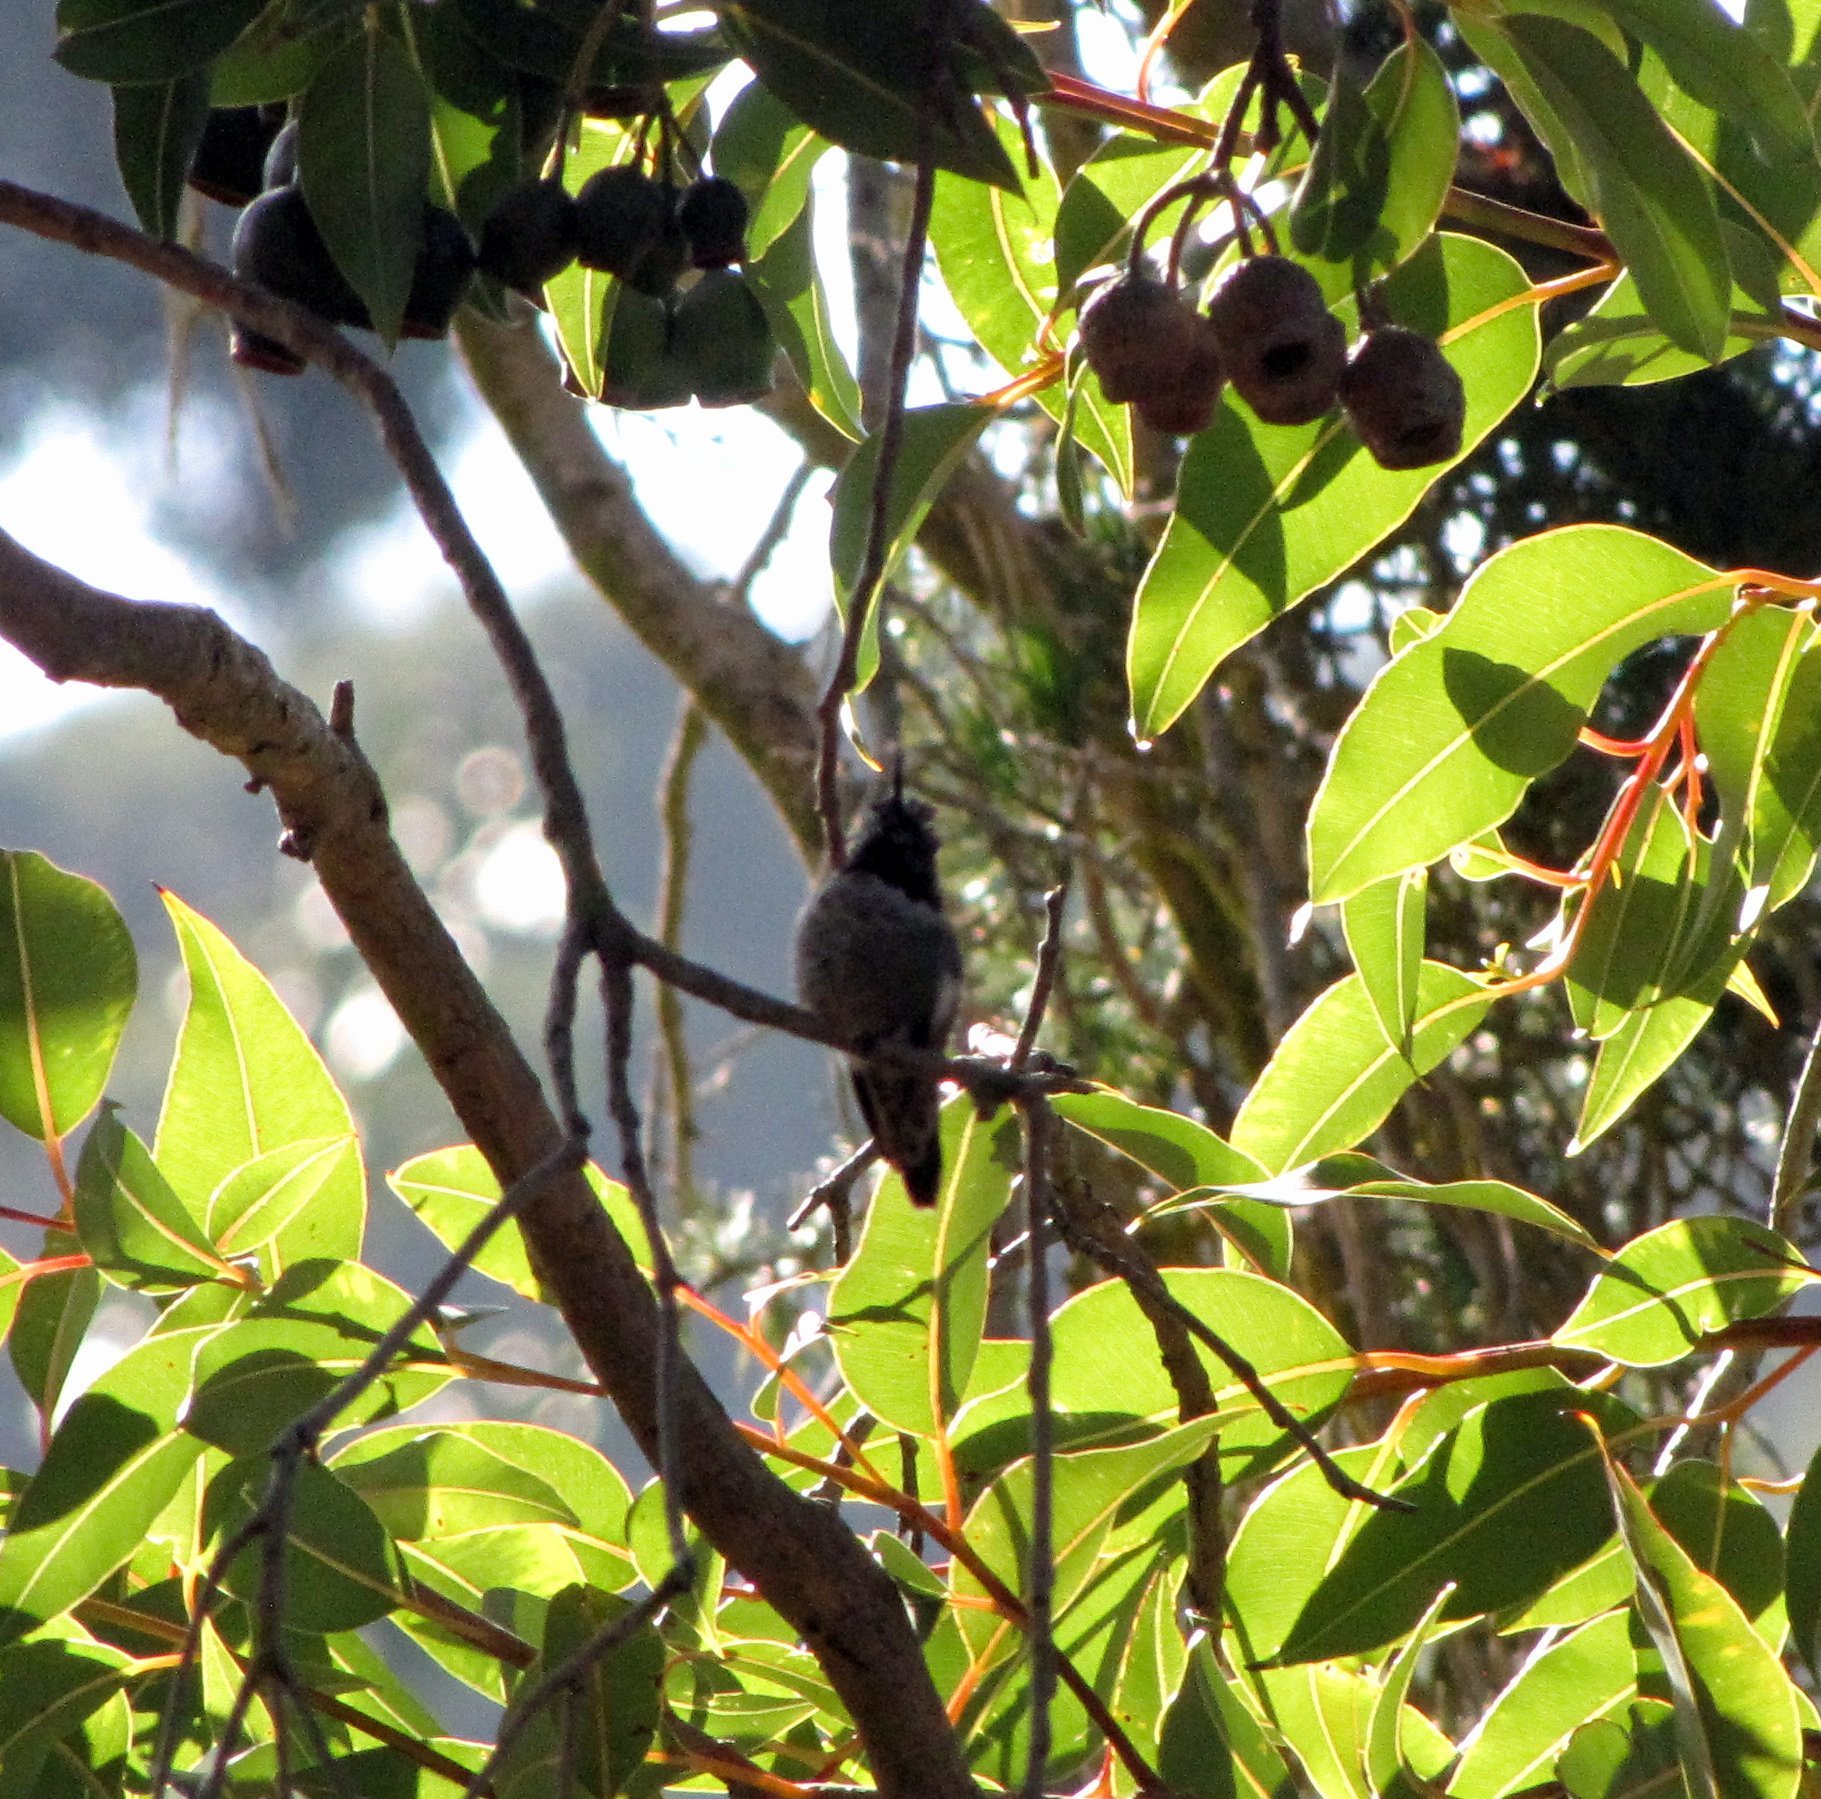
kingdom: Animalia
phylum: Chordata
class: Aves
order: Apodiformes
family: Trochilidae
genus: Calypte
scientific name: Calypte anna
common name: Anna's hummingbird
